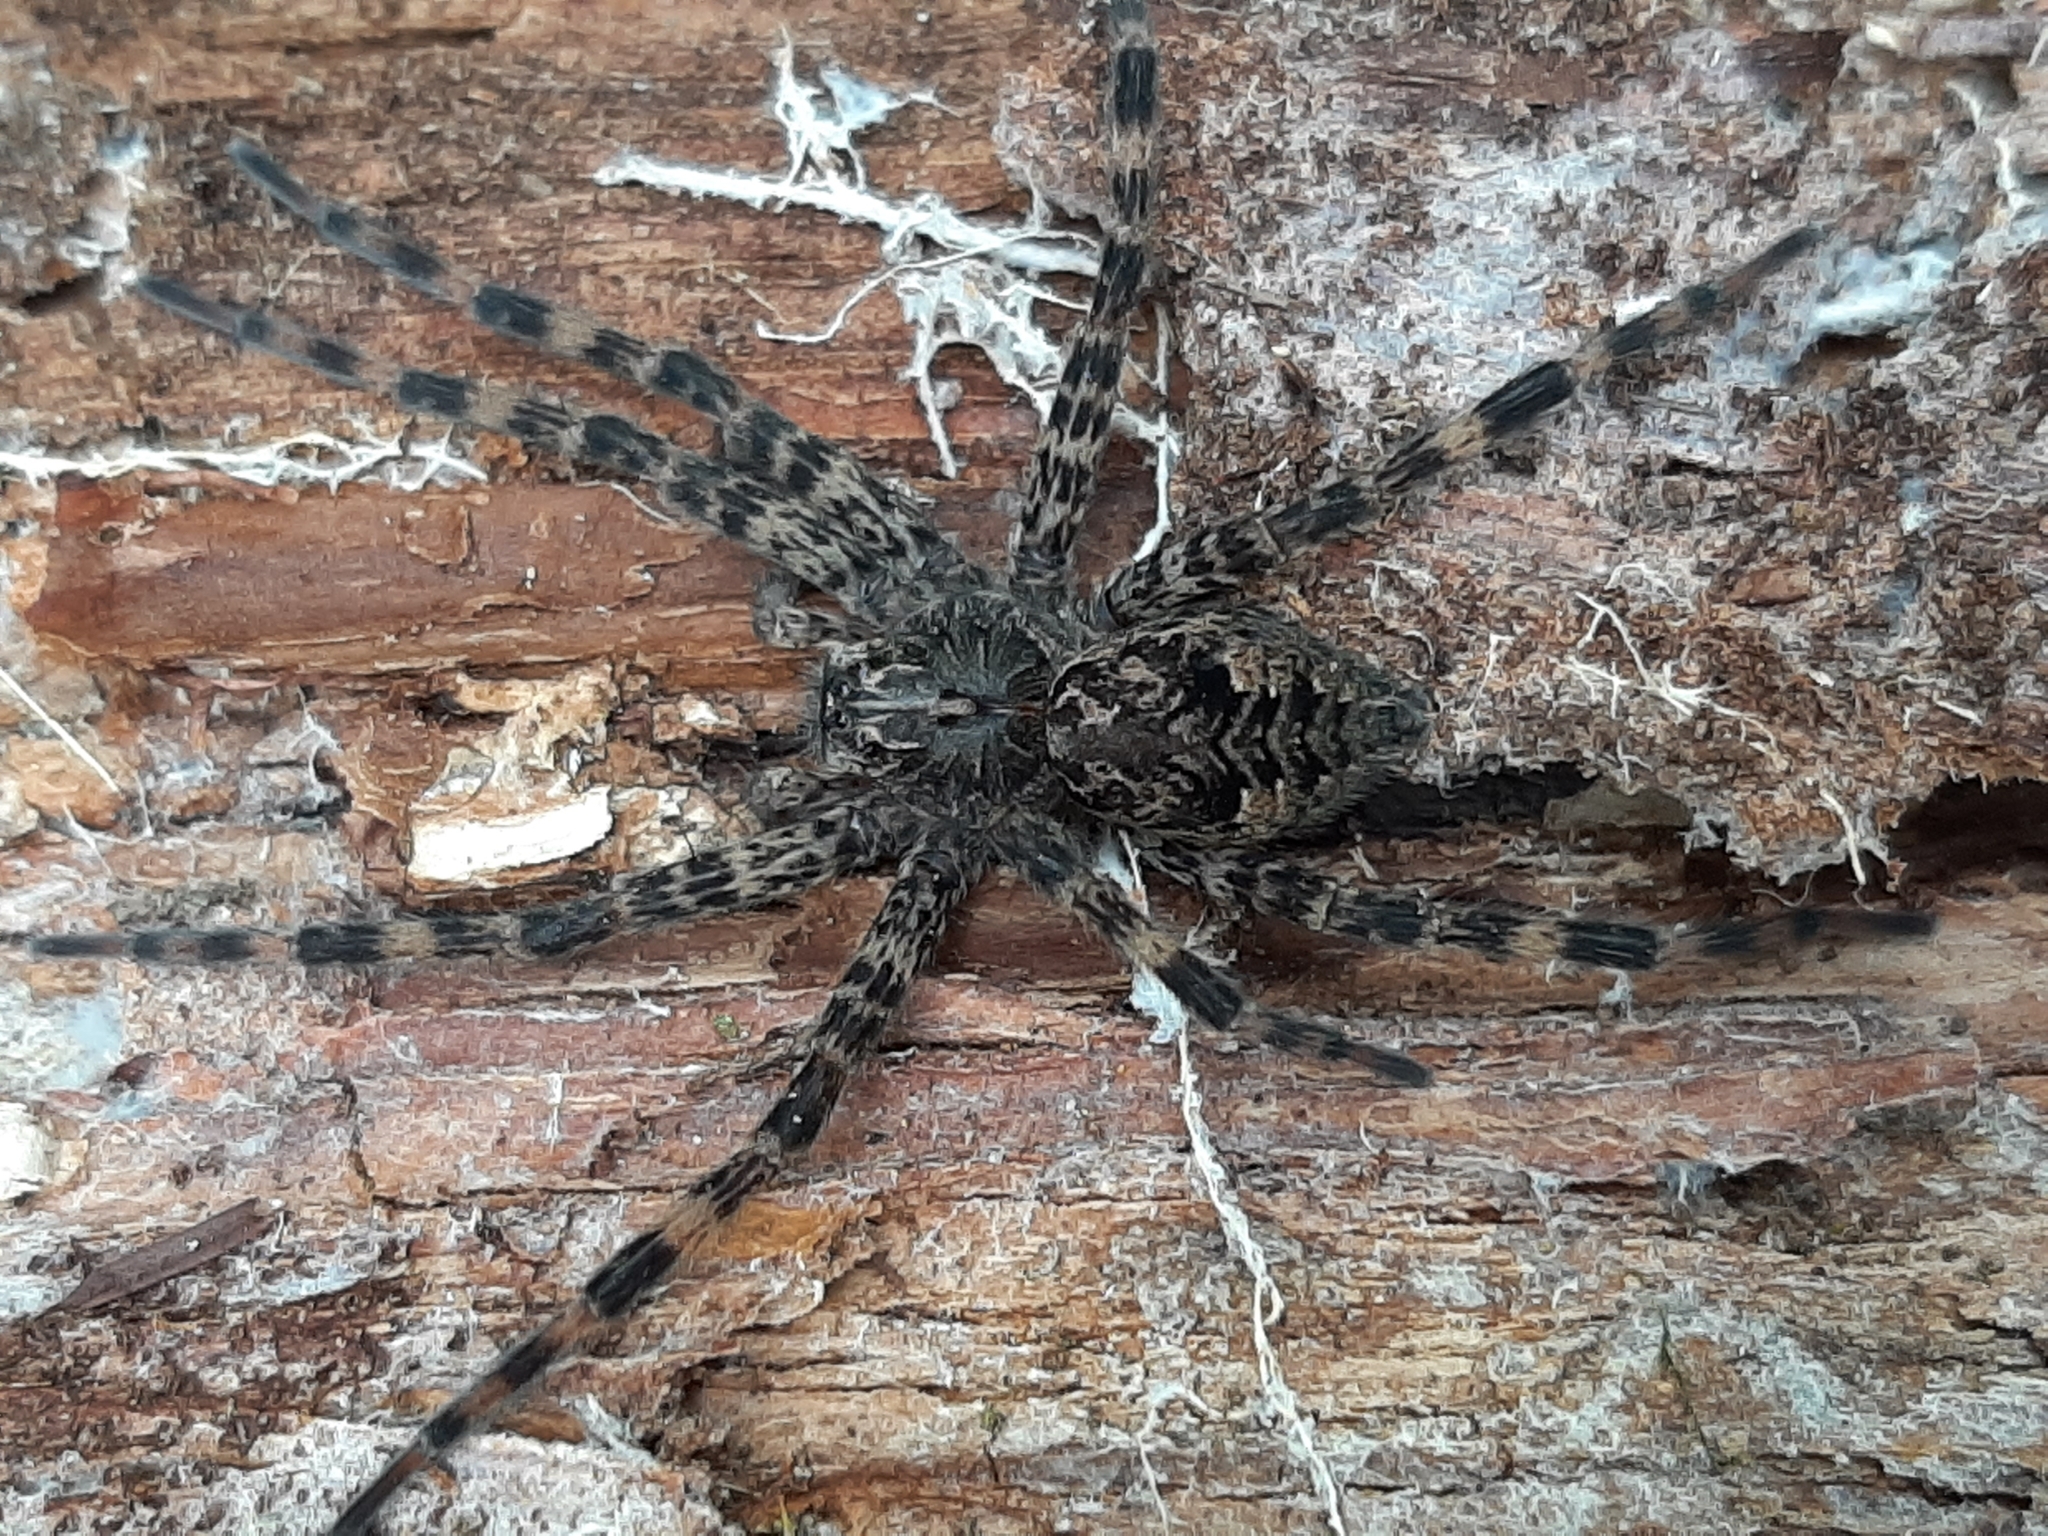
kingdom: Animalia
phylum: Arthropoda
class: Arachnida
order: Araneae
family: Pisauridae
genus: Dolomedes
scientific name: Dolomedes tenebrosus
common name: Dark fishing spider
